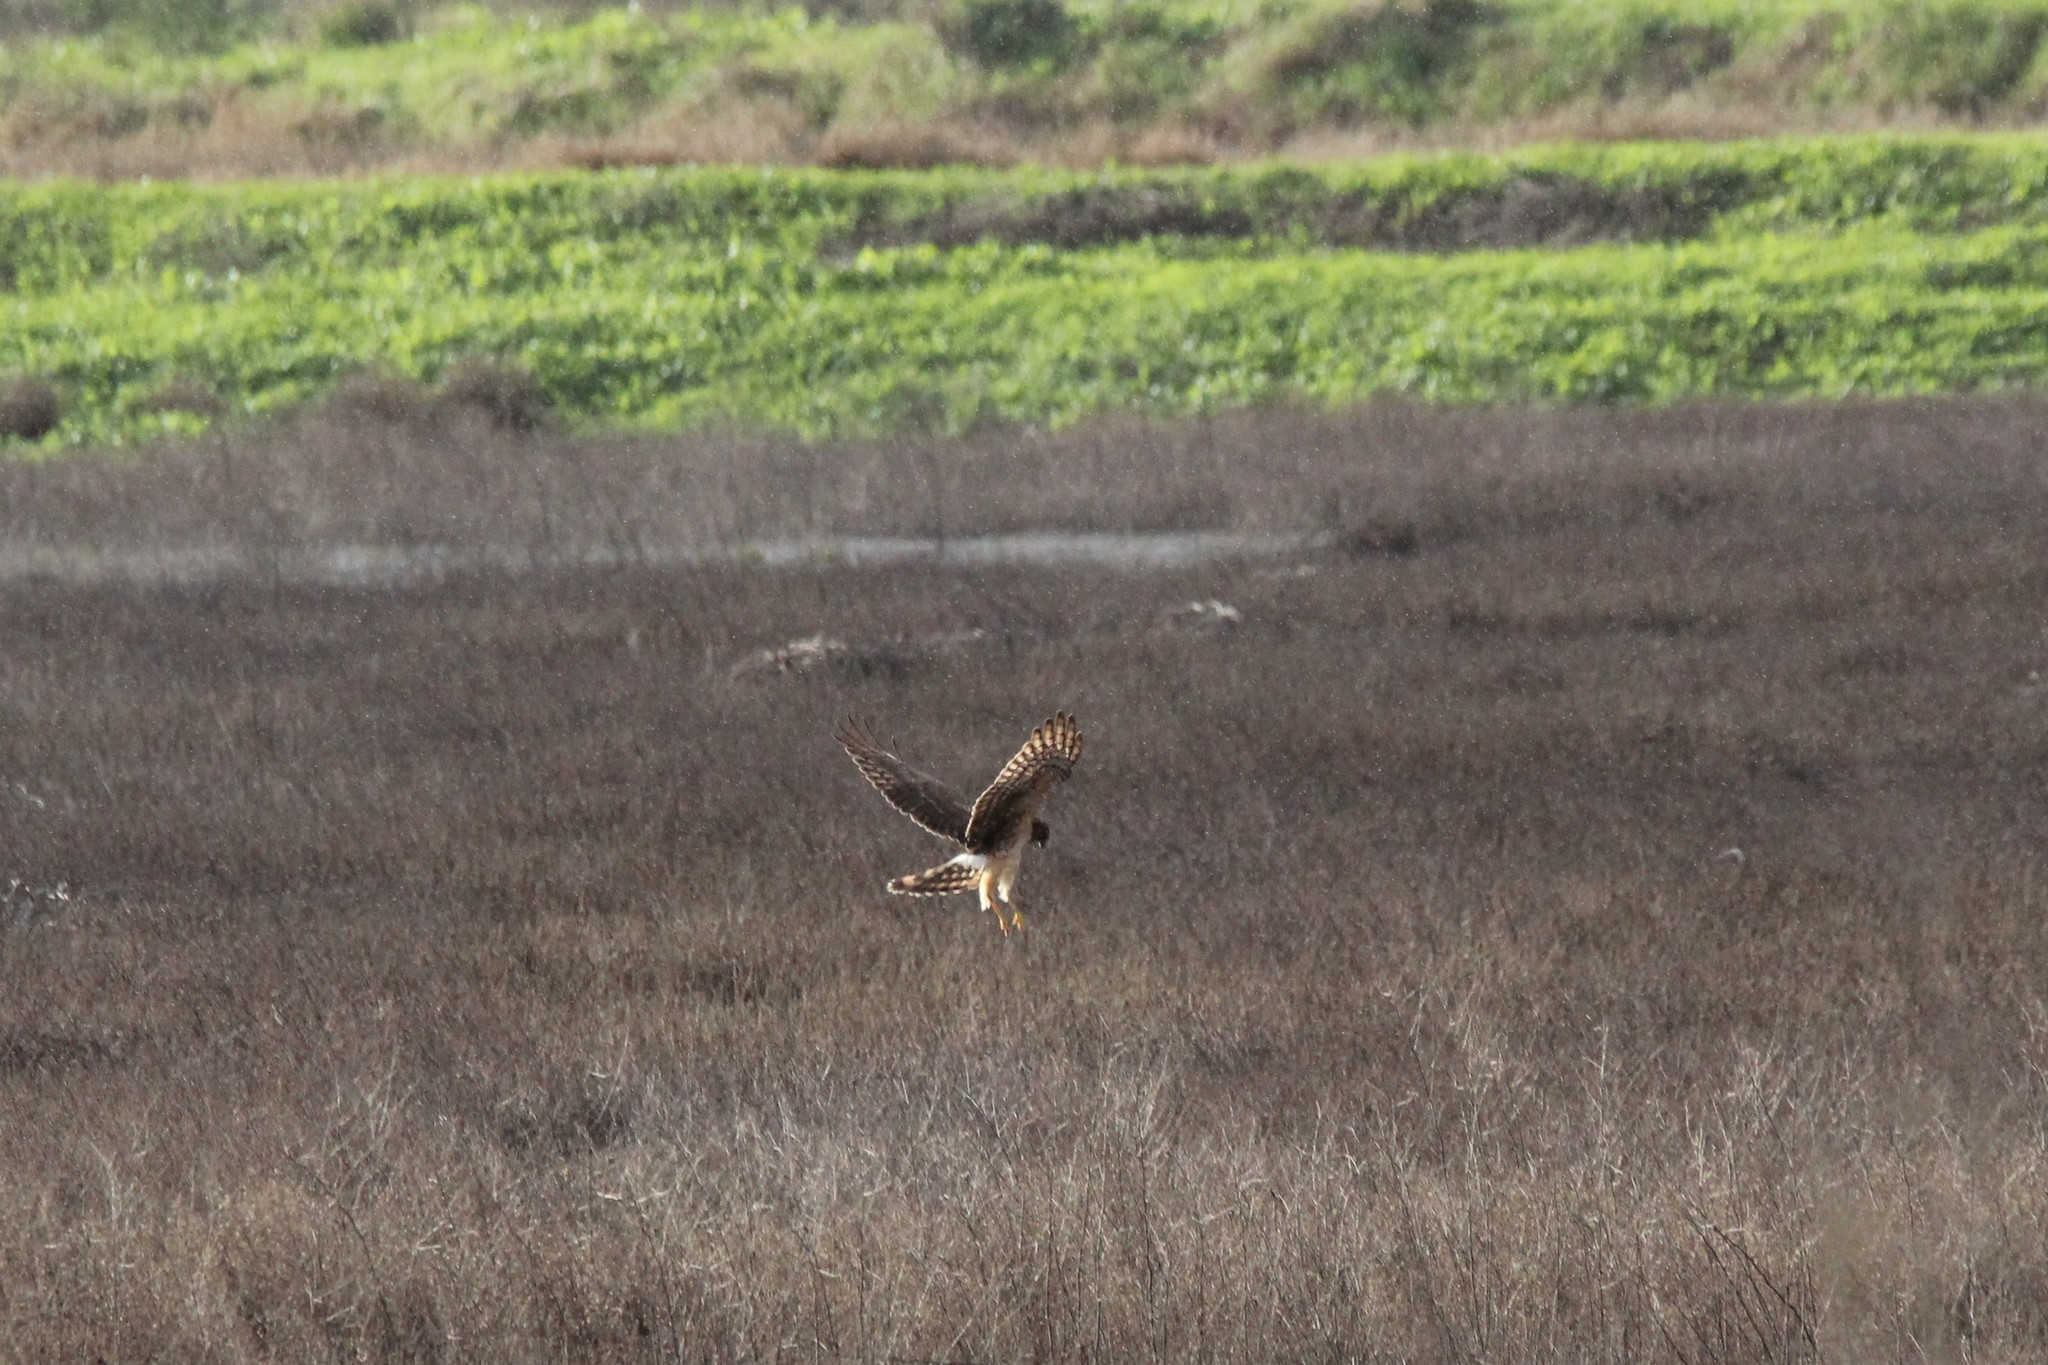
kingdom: Animalia
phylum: Chordata
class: Aves
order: Accipitriformes
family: Accipitridae
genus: Circus
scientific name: Circus cyaneus
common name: Hen harrier
